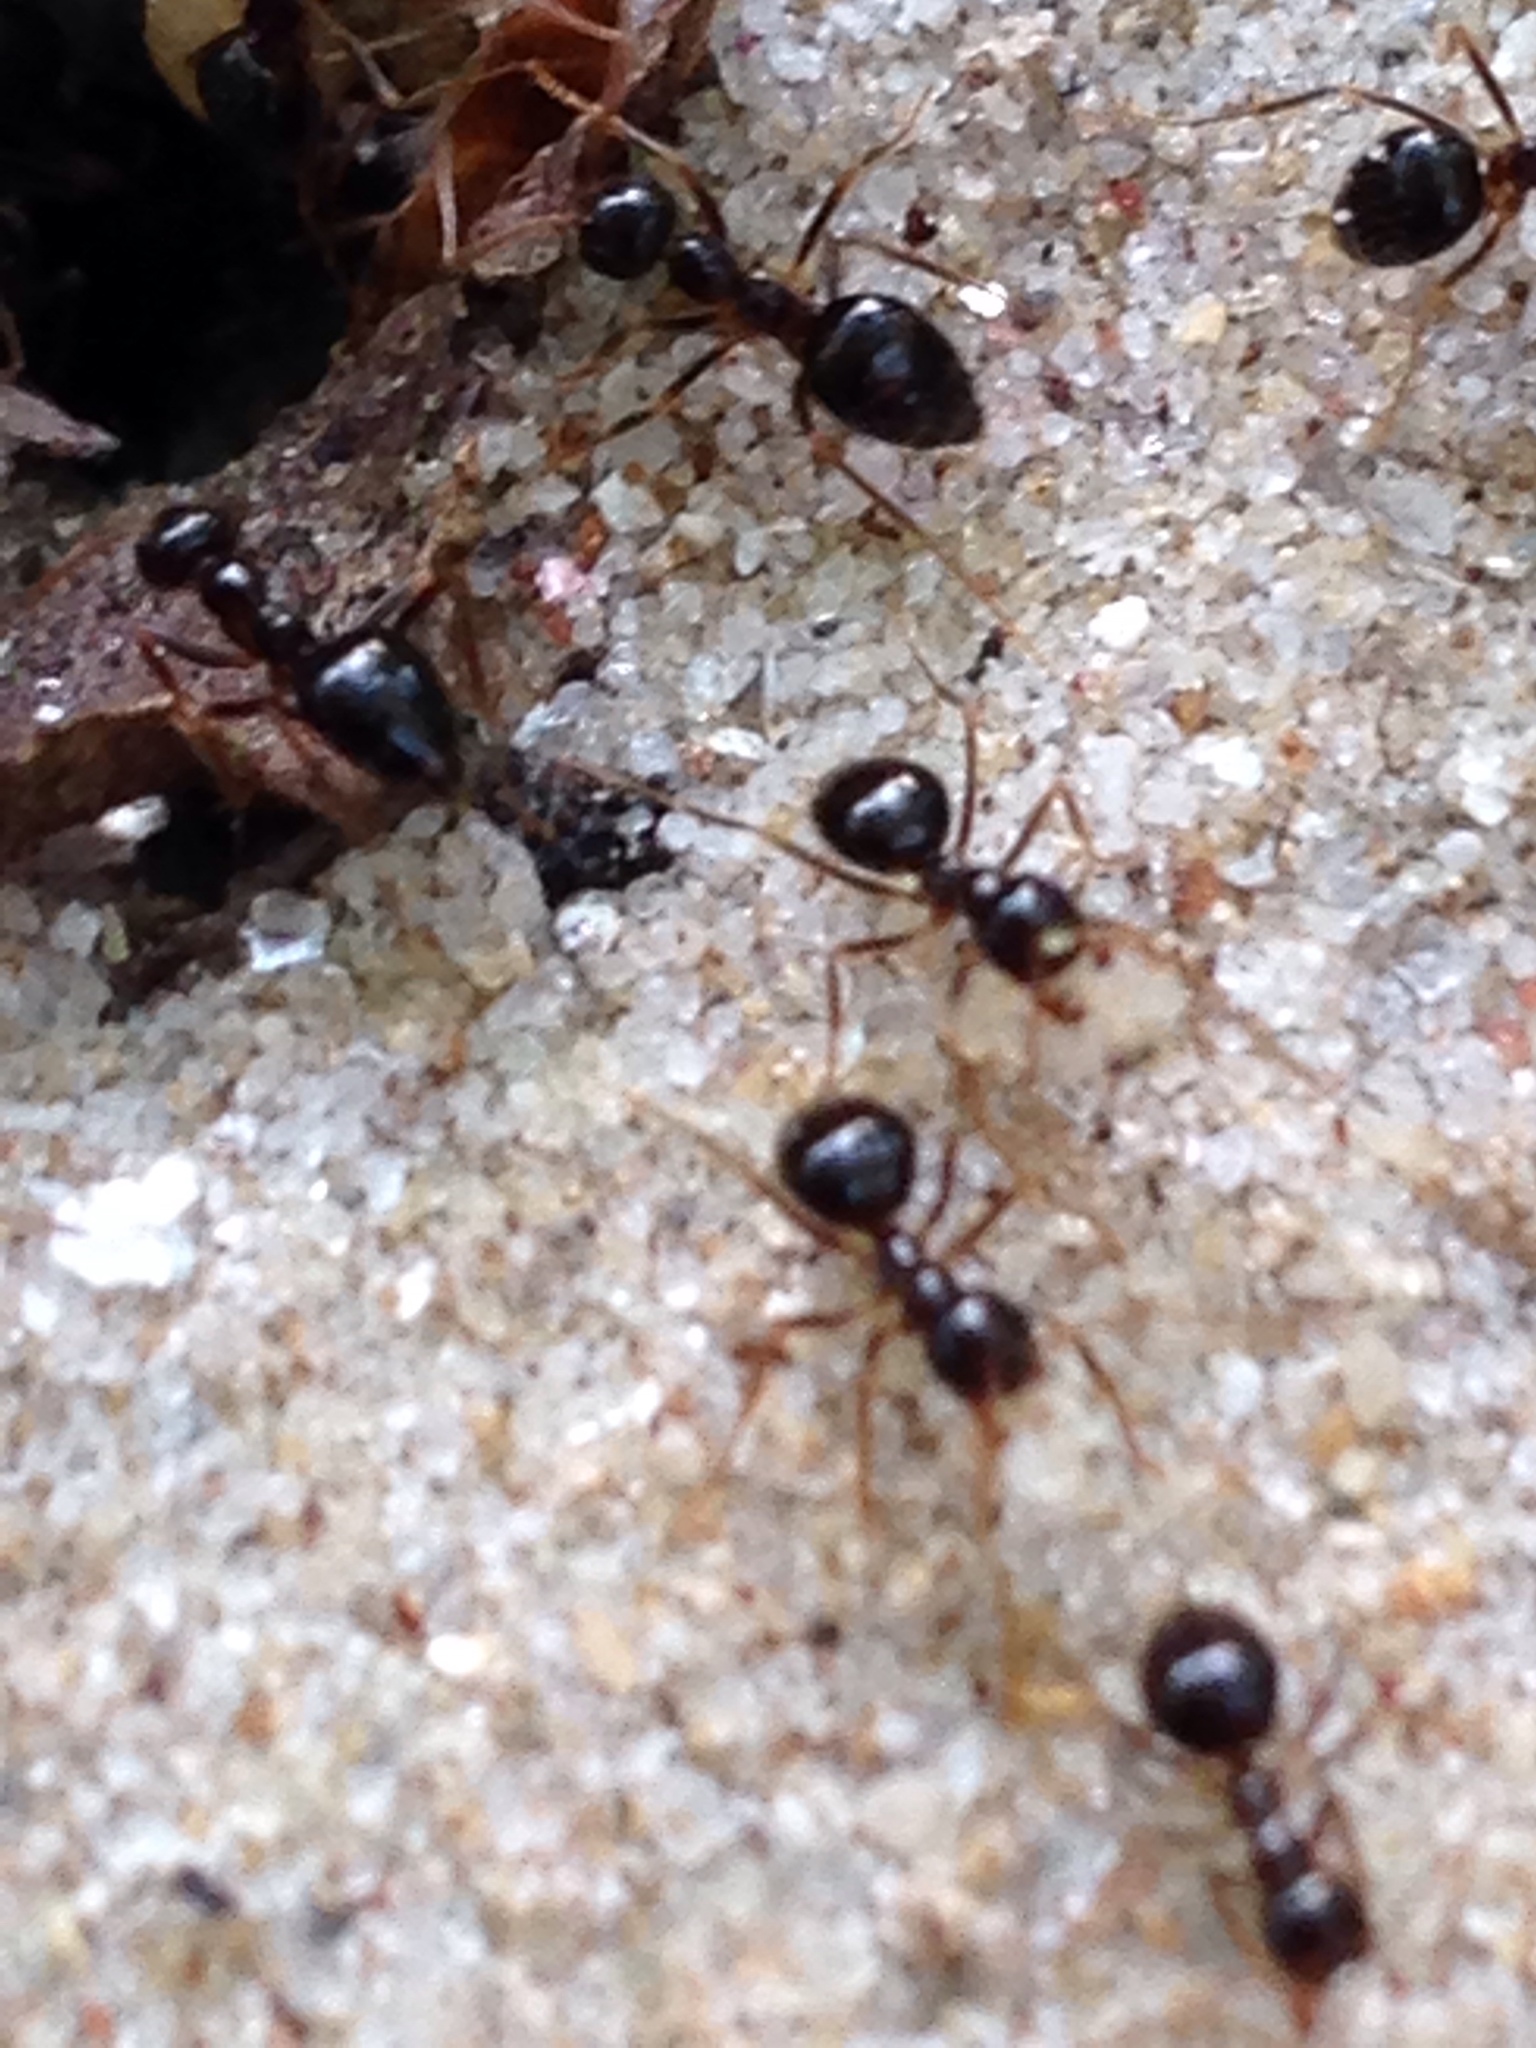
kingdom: Animalia
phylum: Arthropoda
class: Insecta
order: Hymenoptera
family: Formicidae
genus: Prenolepis
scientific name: Prenolepis imparis
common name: Small honey ant
